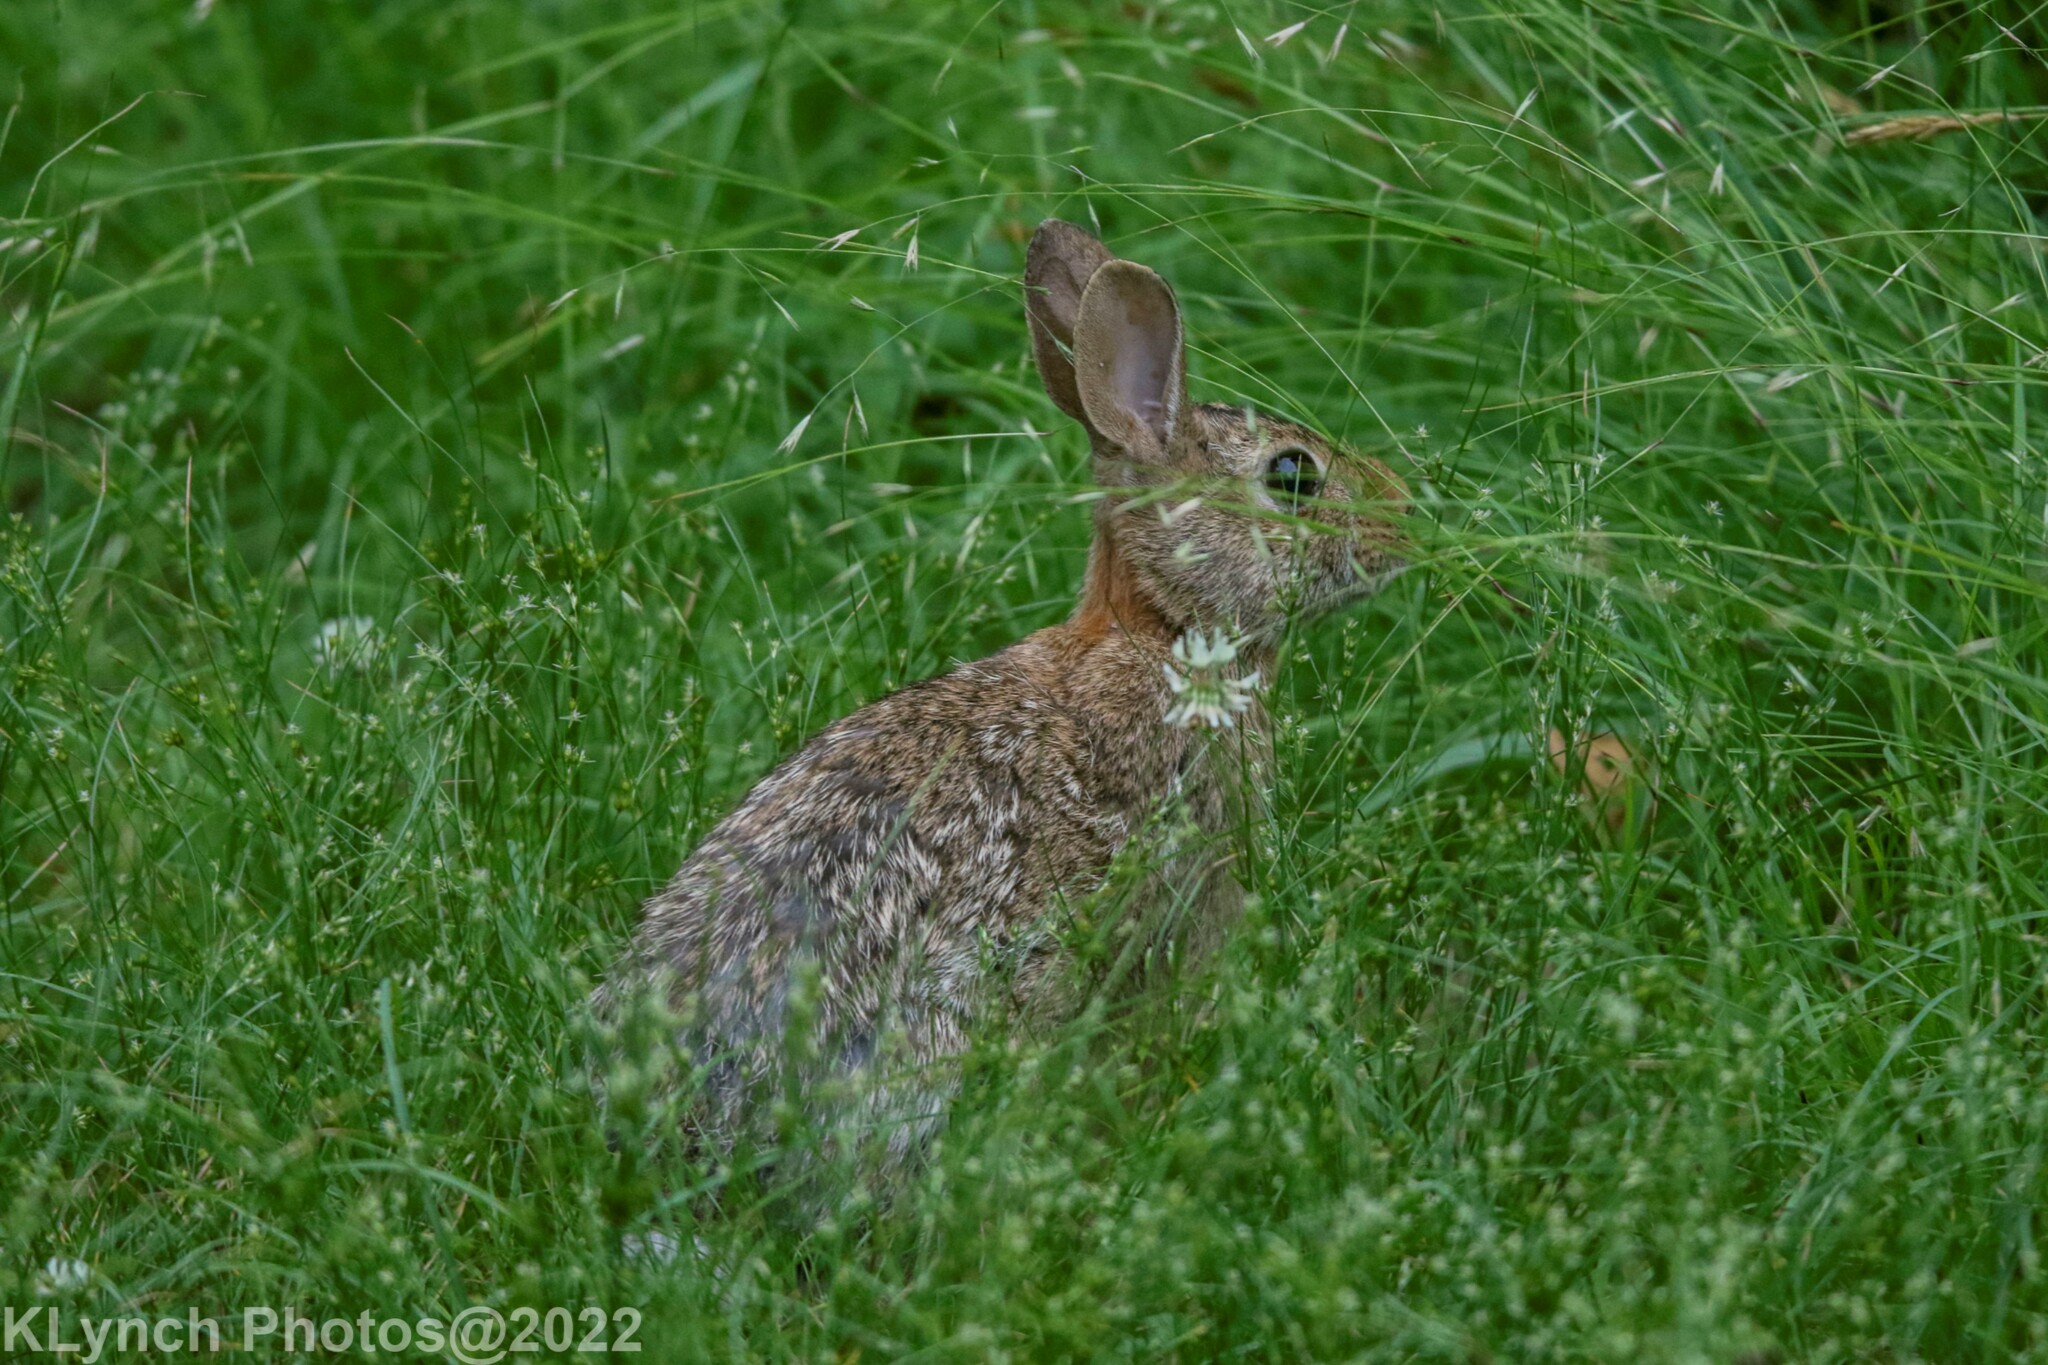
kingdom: Animalia
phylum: Chordata
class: Mammalia
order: Lagomorpha
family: Leporidae
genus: Sylvilagus
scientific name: Sylvilagus floridanus
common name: Eastern cottontail
